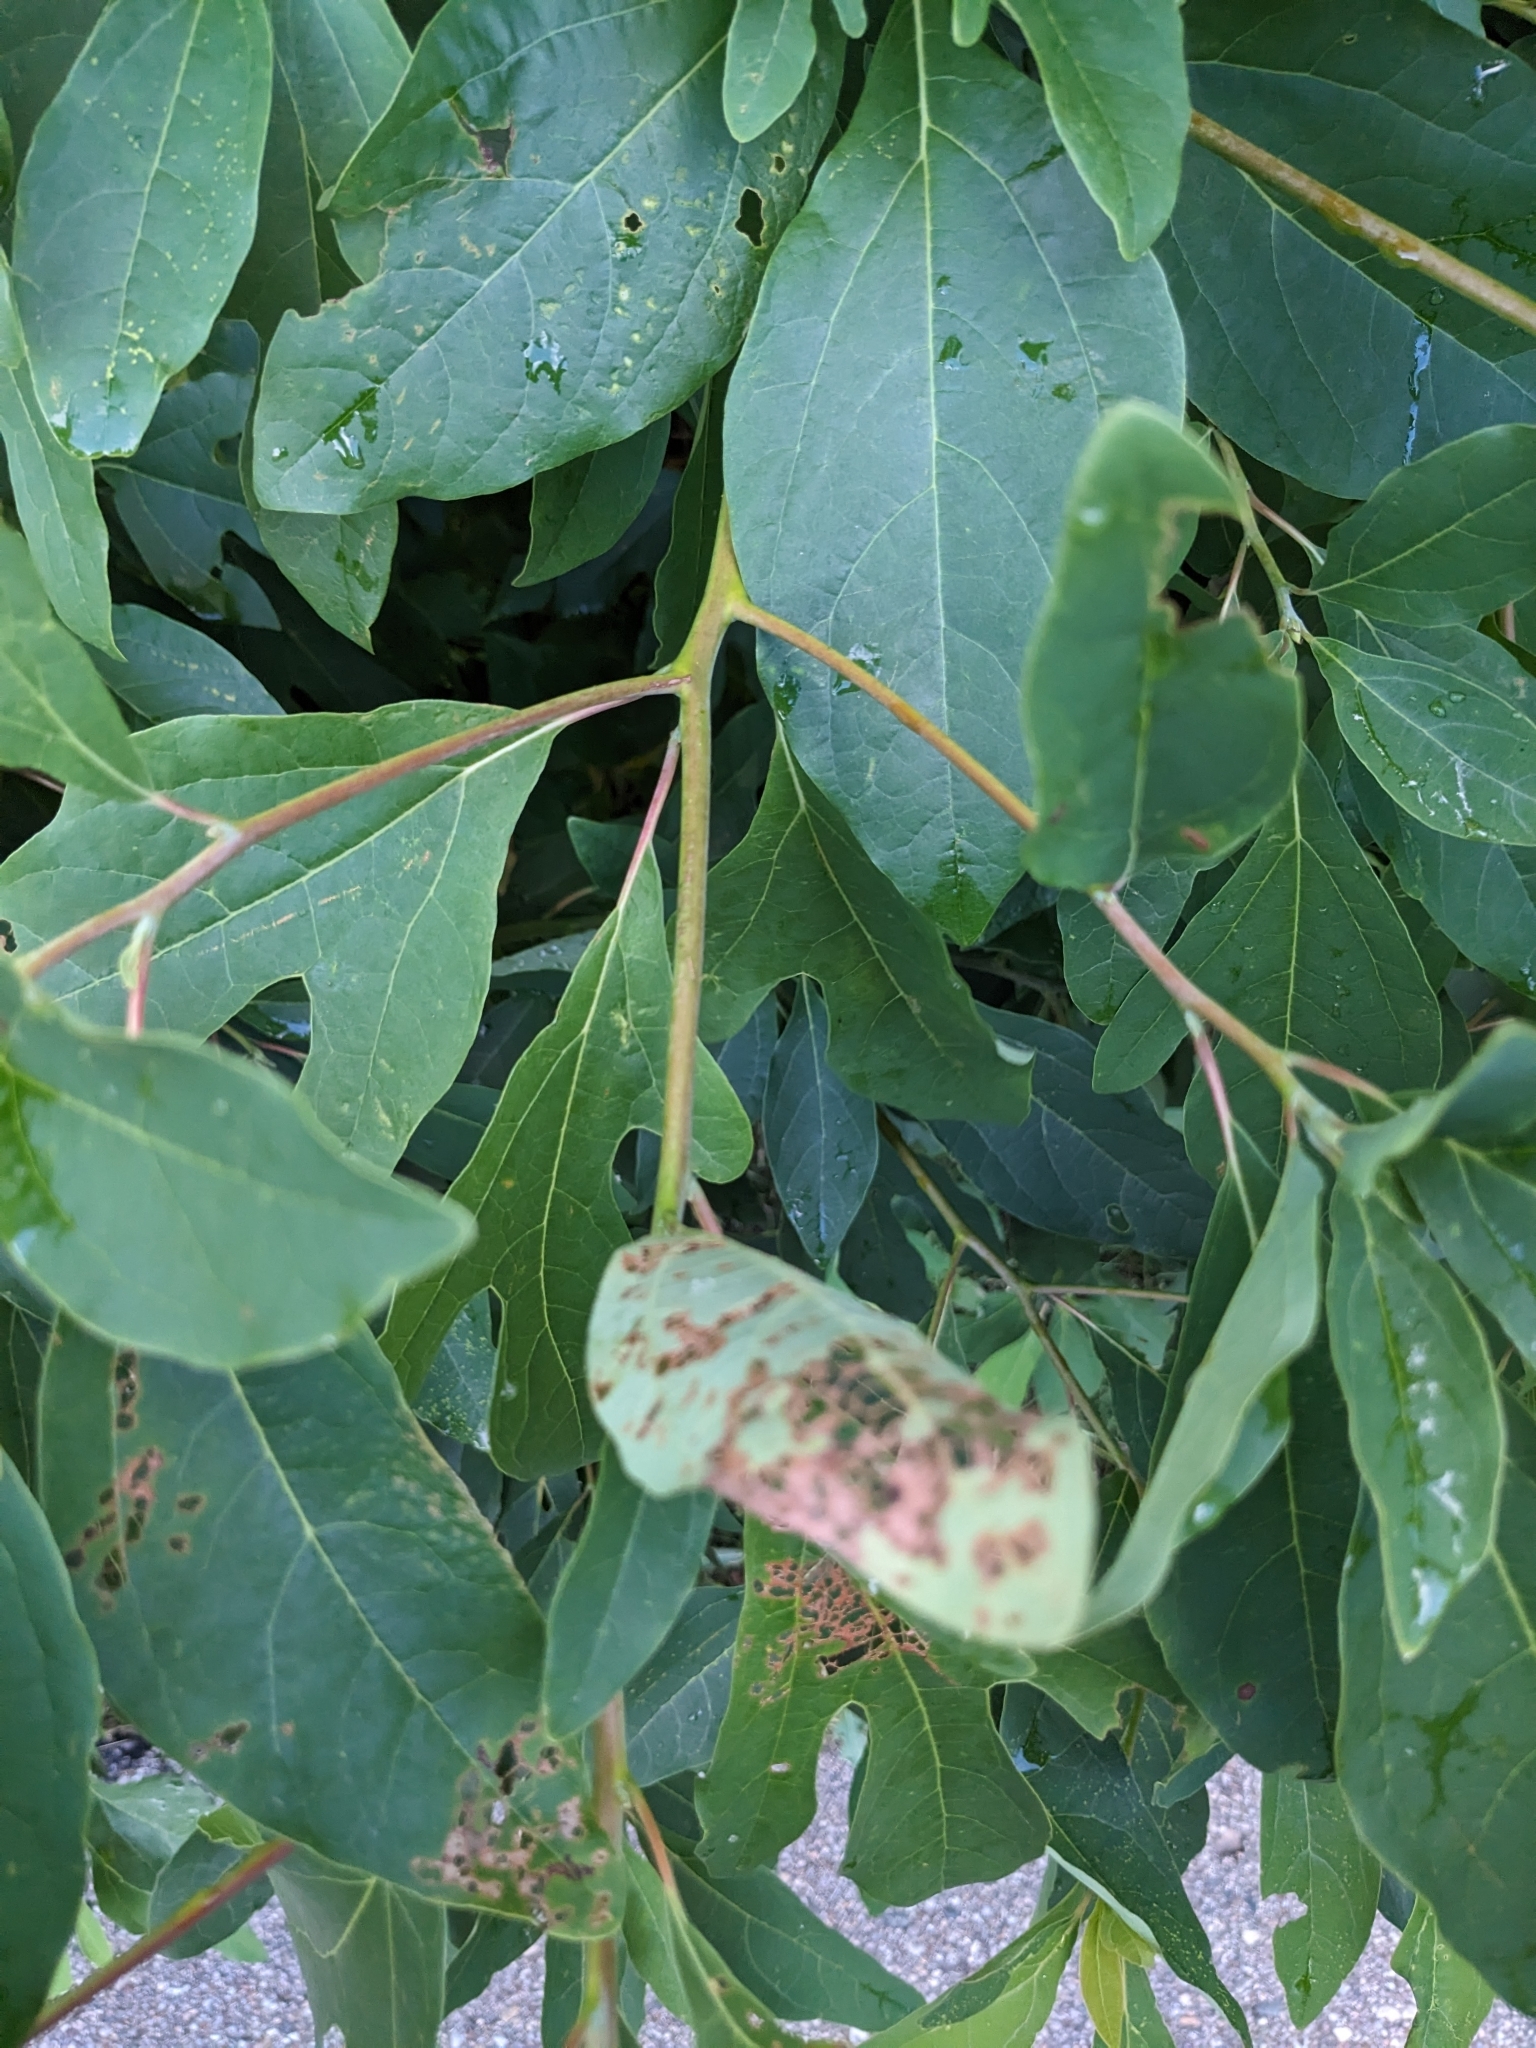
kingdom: Plantae
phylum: Tracheophyta
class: Magnoliopsida
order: Laurales
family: Lauraceae
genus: Sassafras
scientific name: Sassafras albidum
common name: Sassafras
